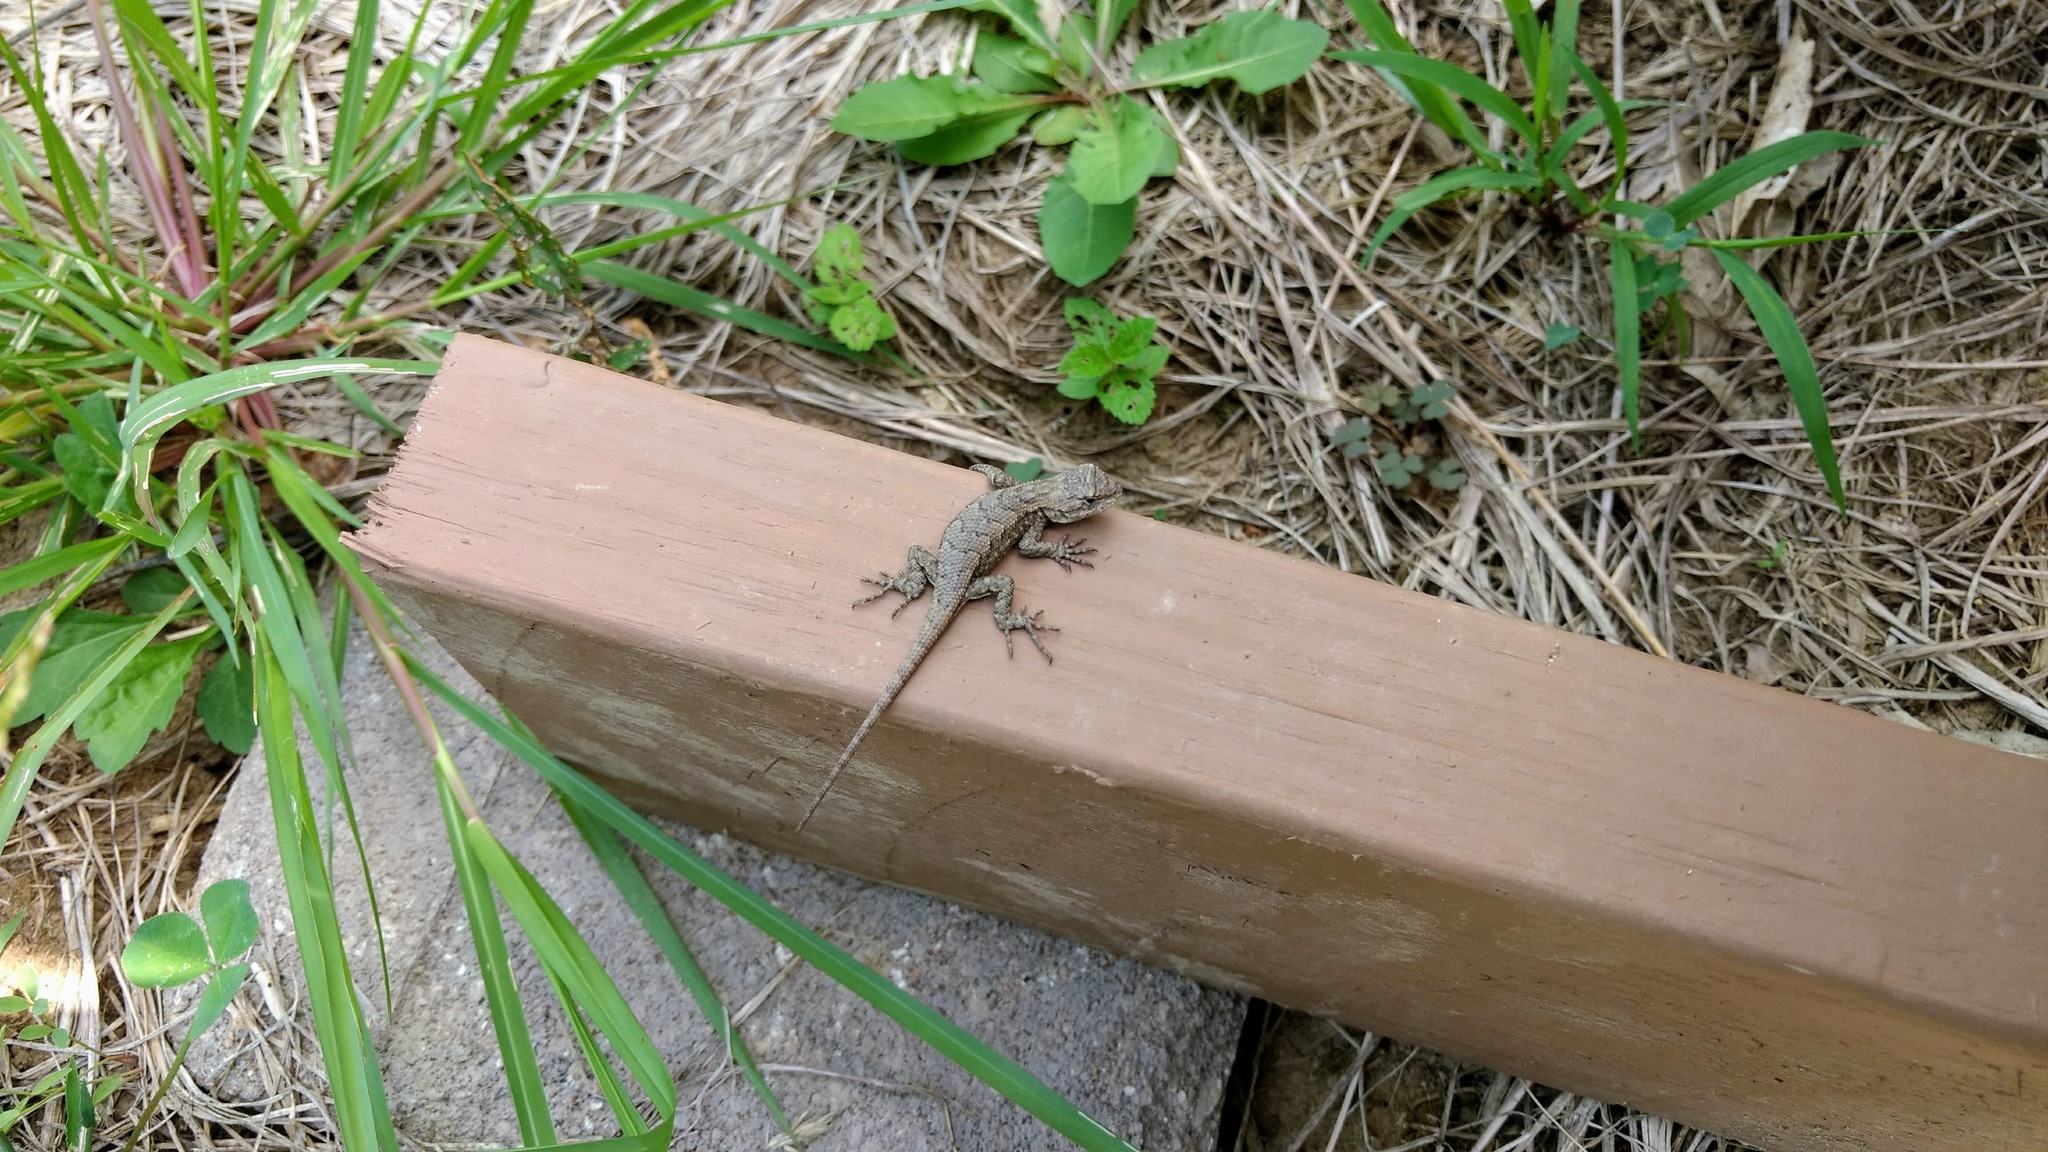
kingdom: Animalia
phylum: Chordata
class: Squamata
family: Phrynosomatidae
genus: Sceloporus
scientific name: Sceloporus consobrinus
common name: Southern prairie lizard
